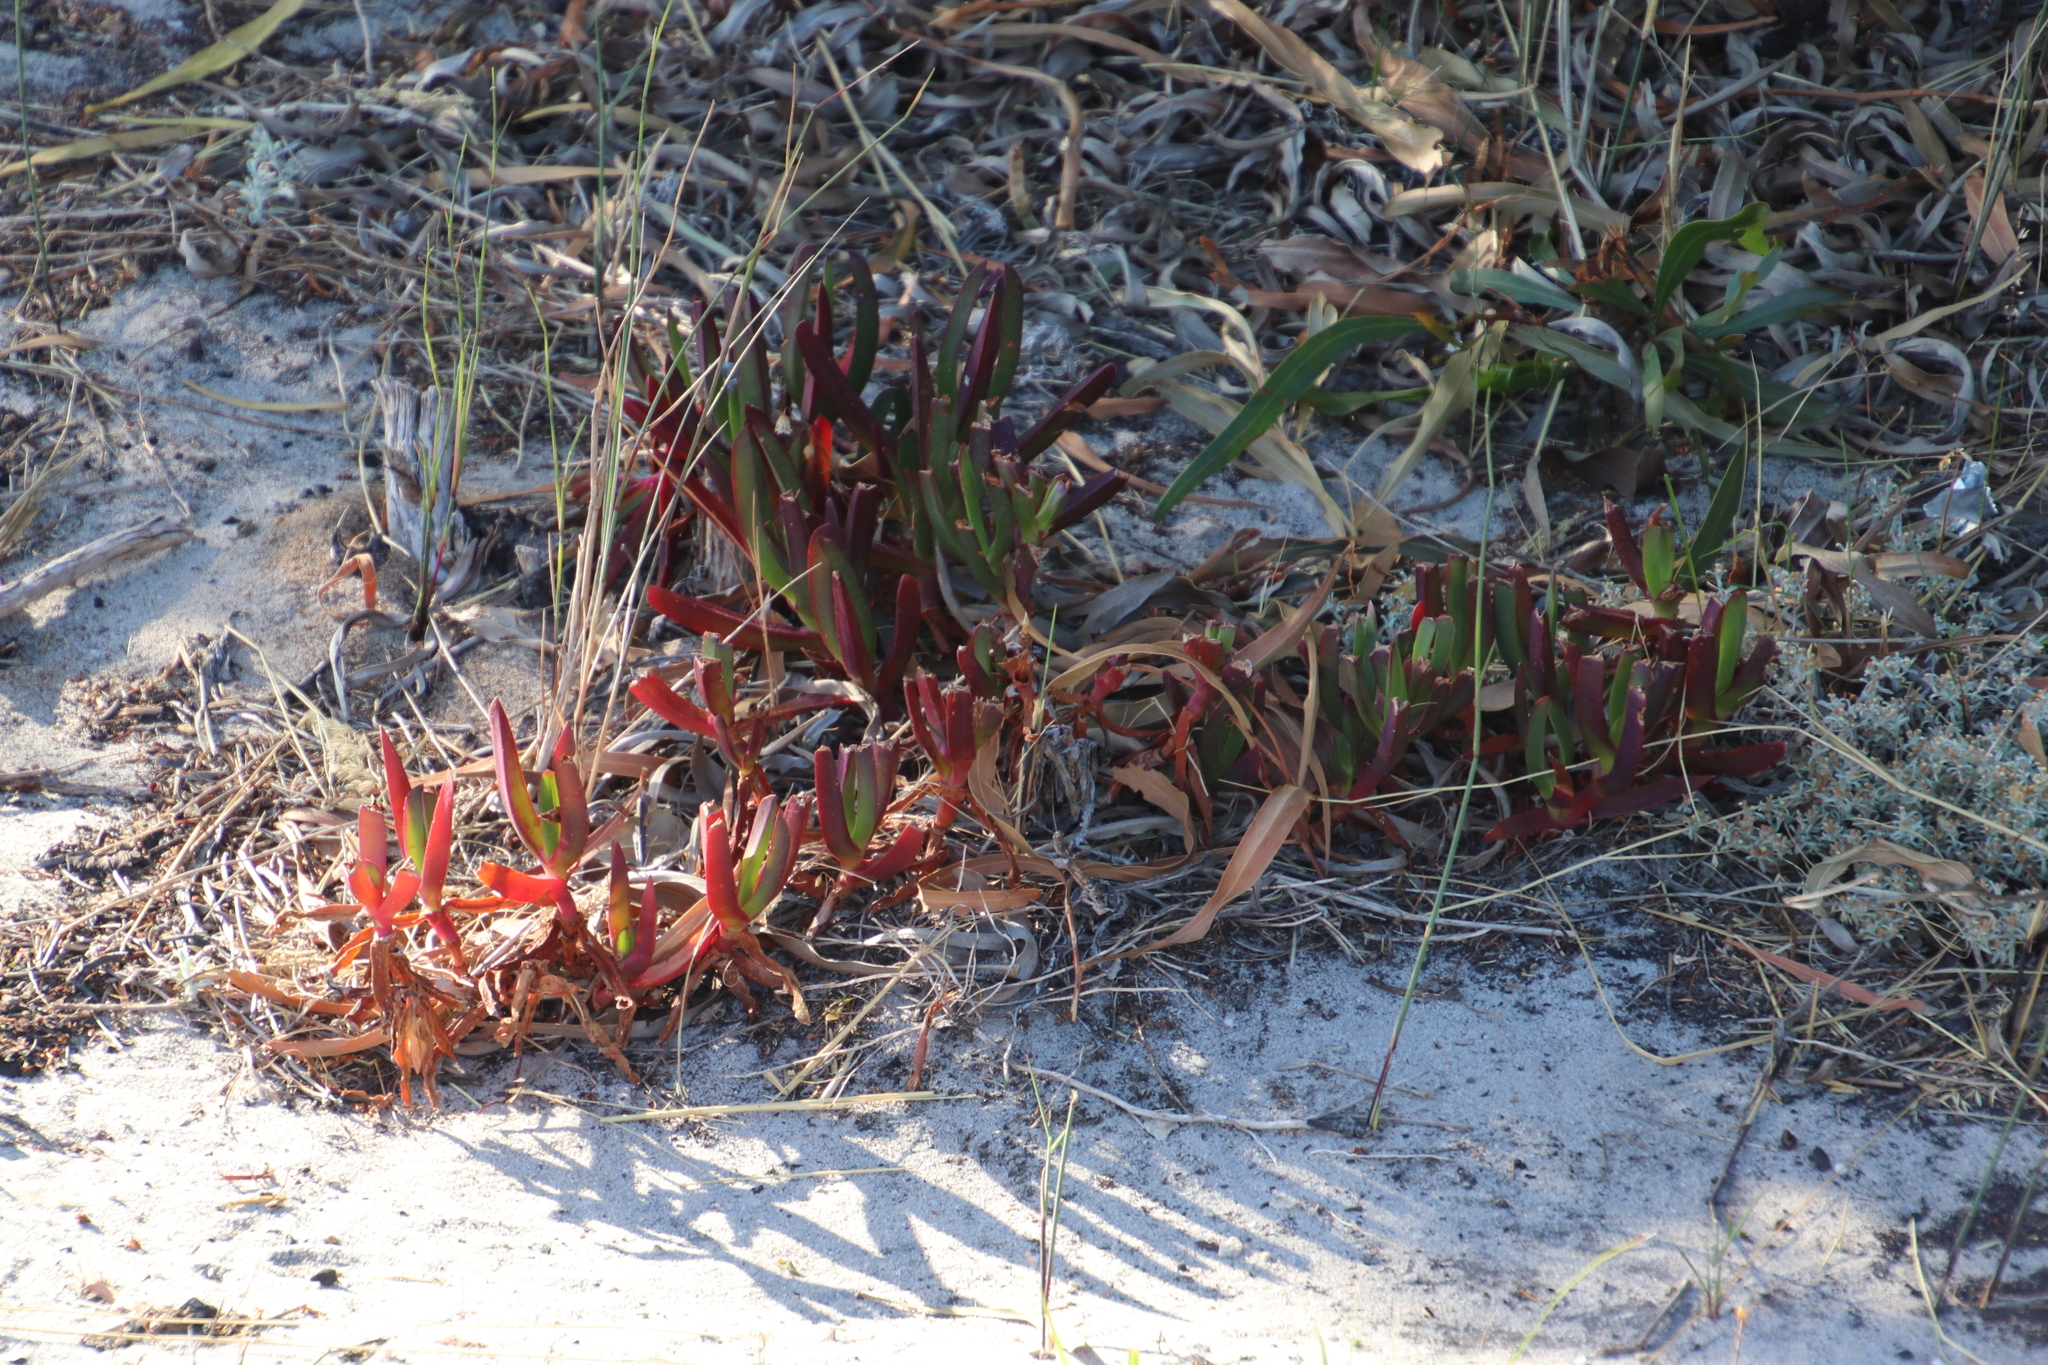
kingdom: Plantae
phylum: Tracheophyta
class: Magnoliopsida
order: Caryophyllales
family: Aizoaceae
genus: Carpobrotus
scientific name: Carpobrotus edulis
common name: Hottentot-fig
